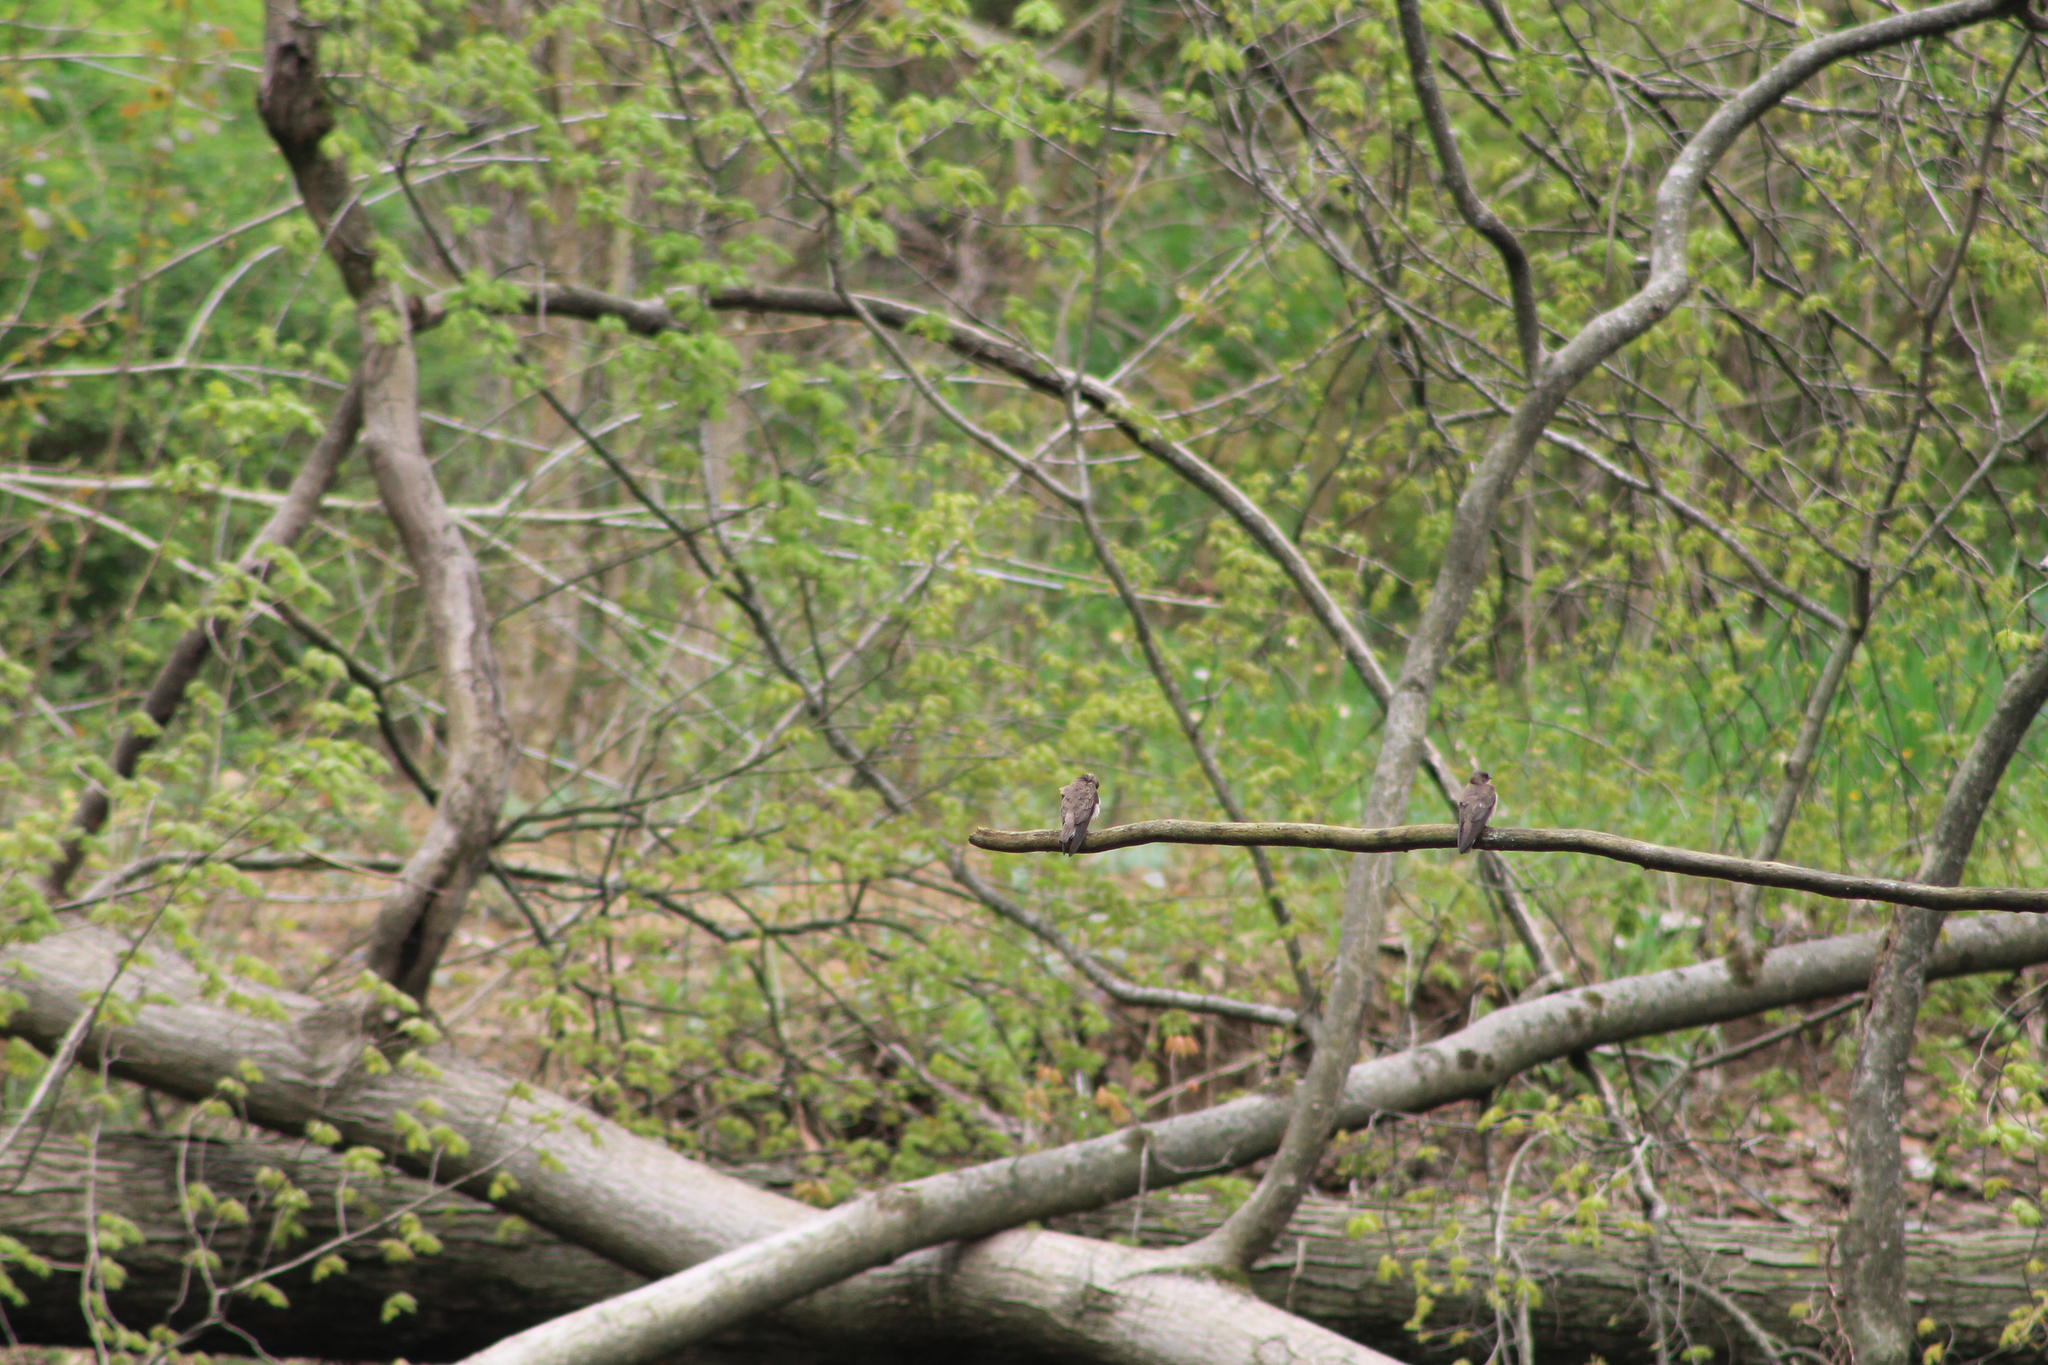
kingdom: Animalia
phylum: Chordata
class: Aves
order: Passeriformes
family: Hirundinidae
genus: Stelgidopteryx
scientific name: Stelgidopteryx serripennis
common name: Northern rough-winged swallow
